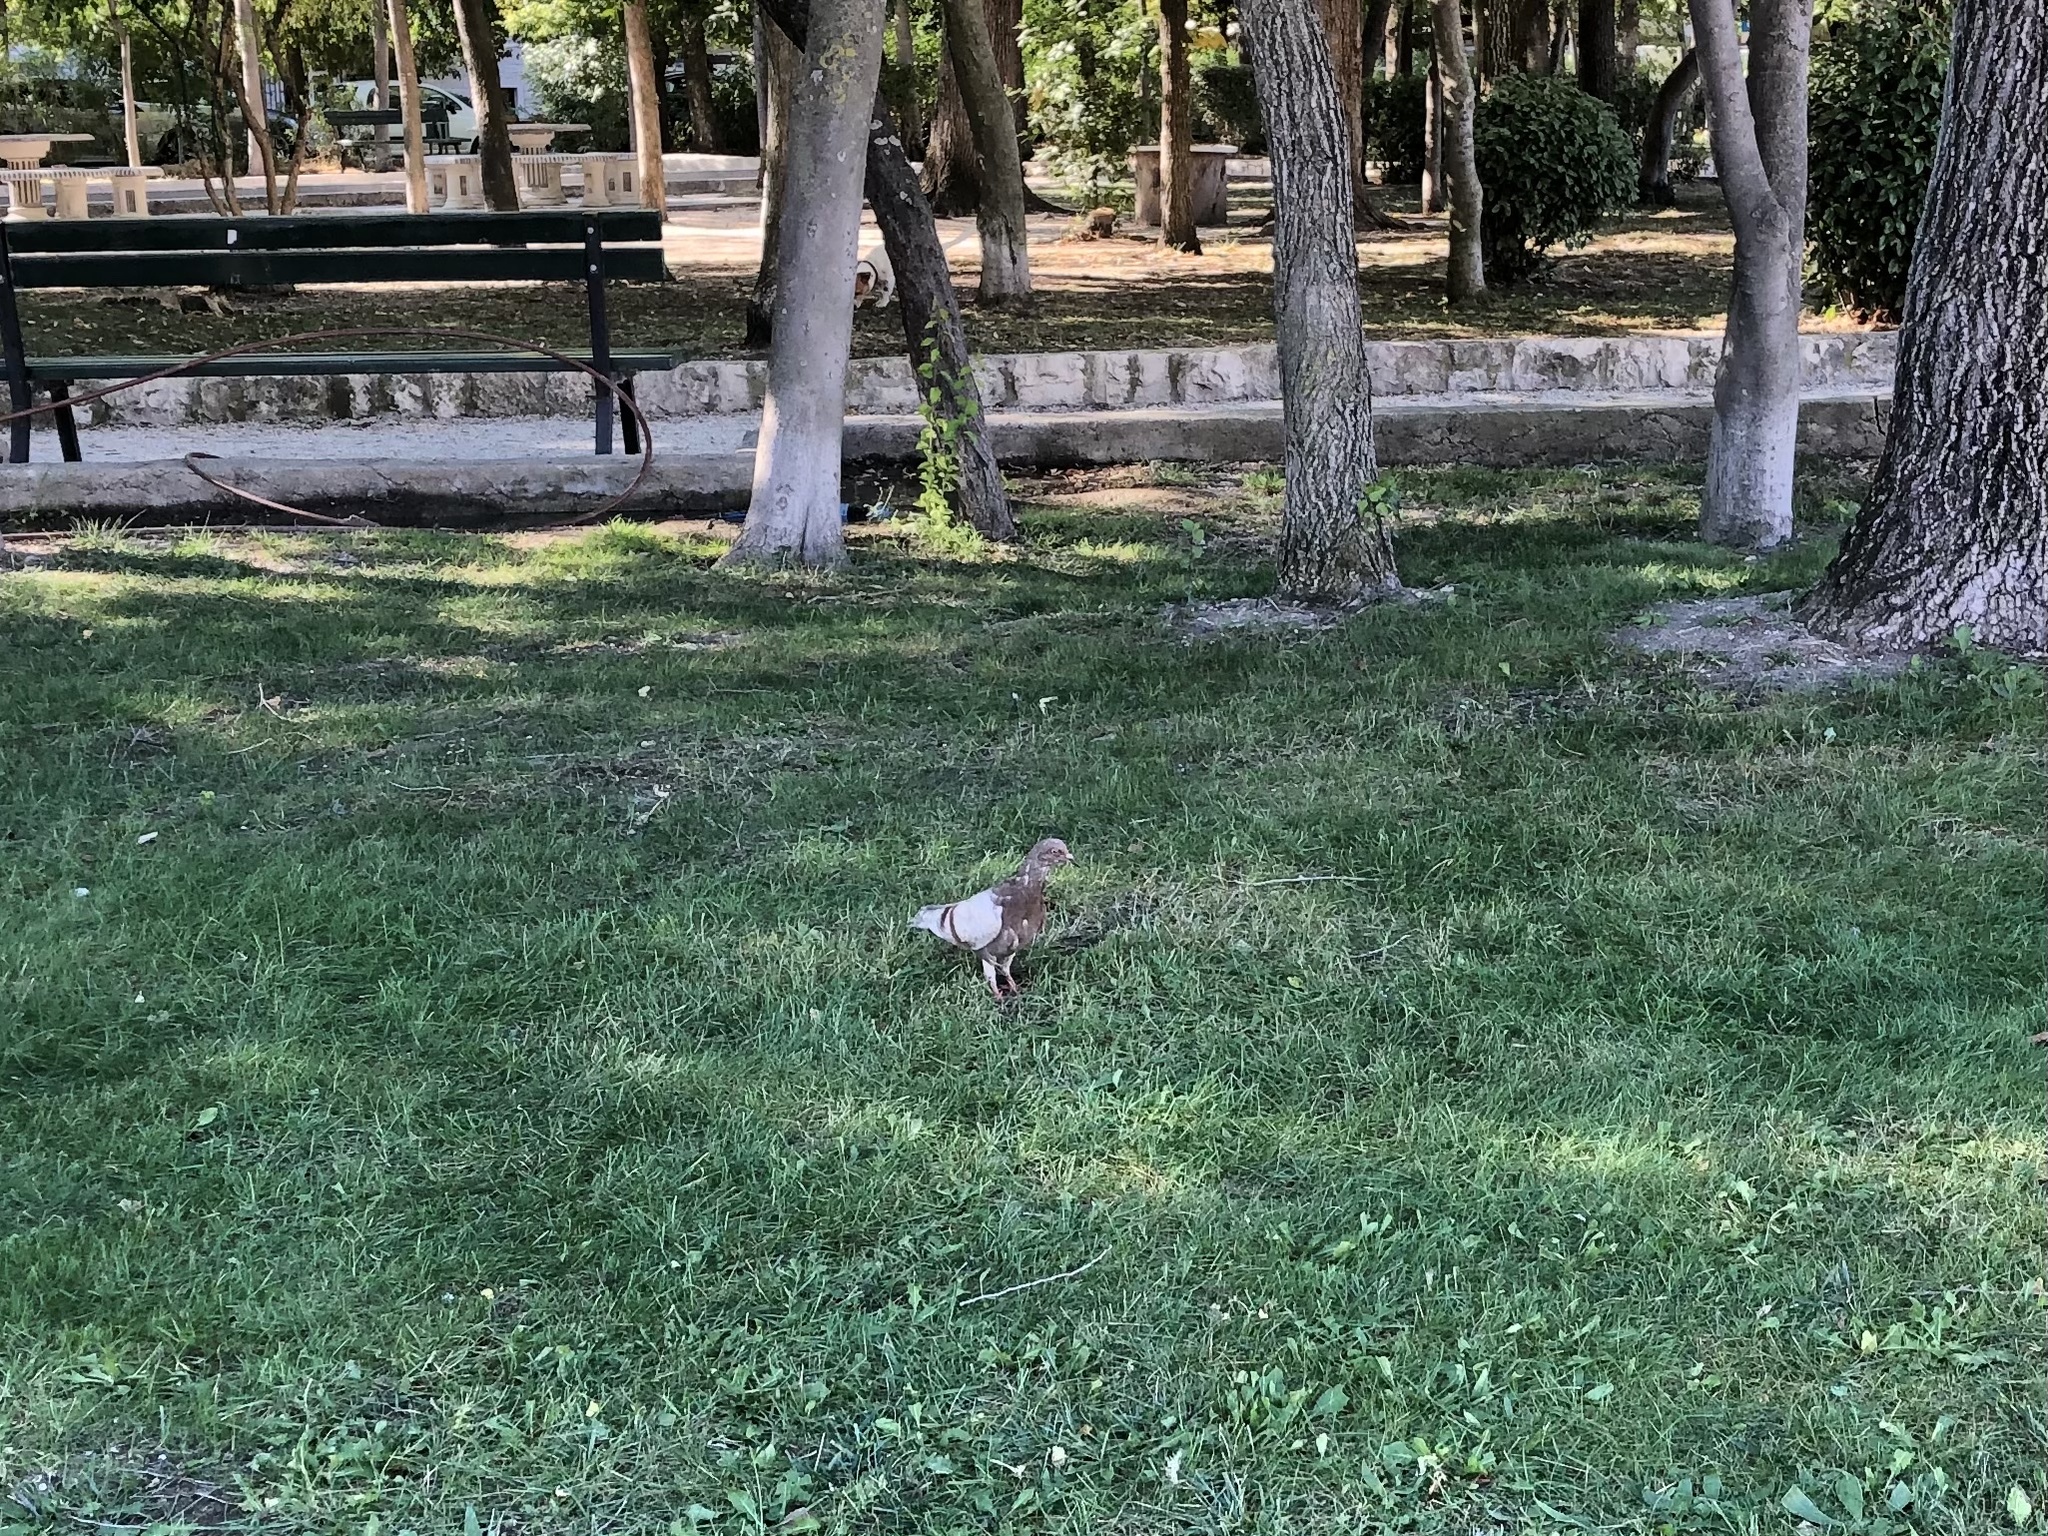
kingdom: Animalia
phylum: Chordata
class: Aves
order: Columbiformes
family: Columbidae
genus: Columba
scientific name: Columba livia
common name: Rock pigeon
